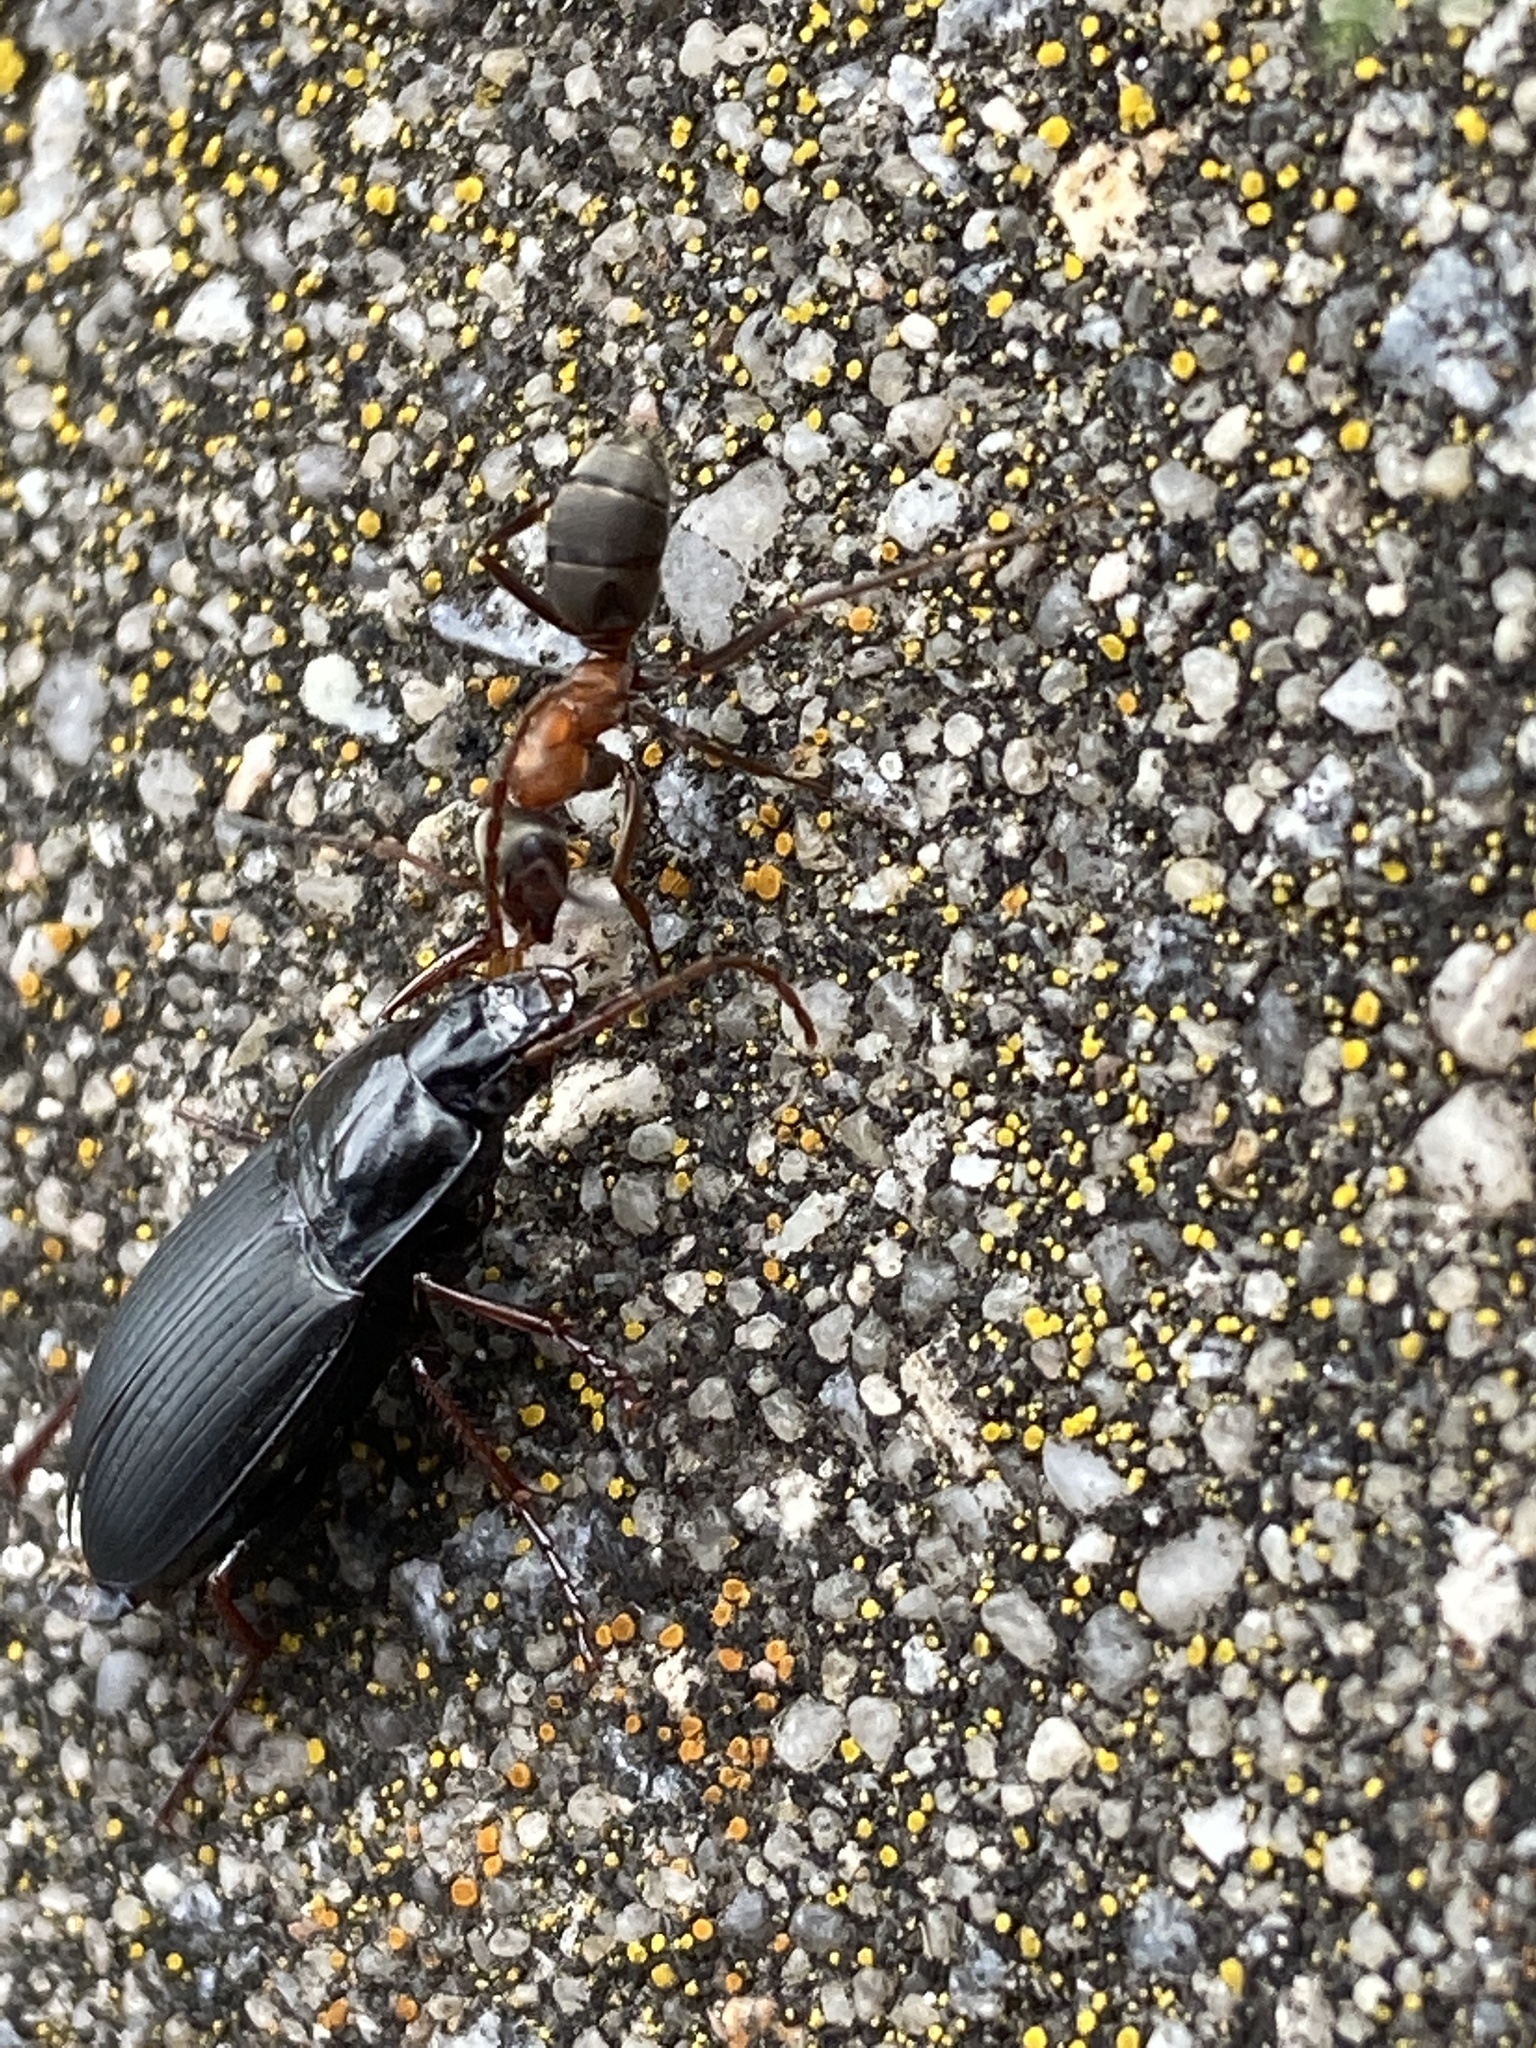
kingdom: Animalia
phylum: Arthropoda
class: Insecta
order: Coleoptera
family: Carabidae
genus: Calathus
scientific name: Calathus fuscipes
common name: Dark-footed harp ground beetle
